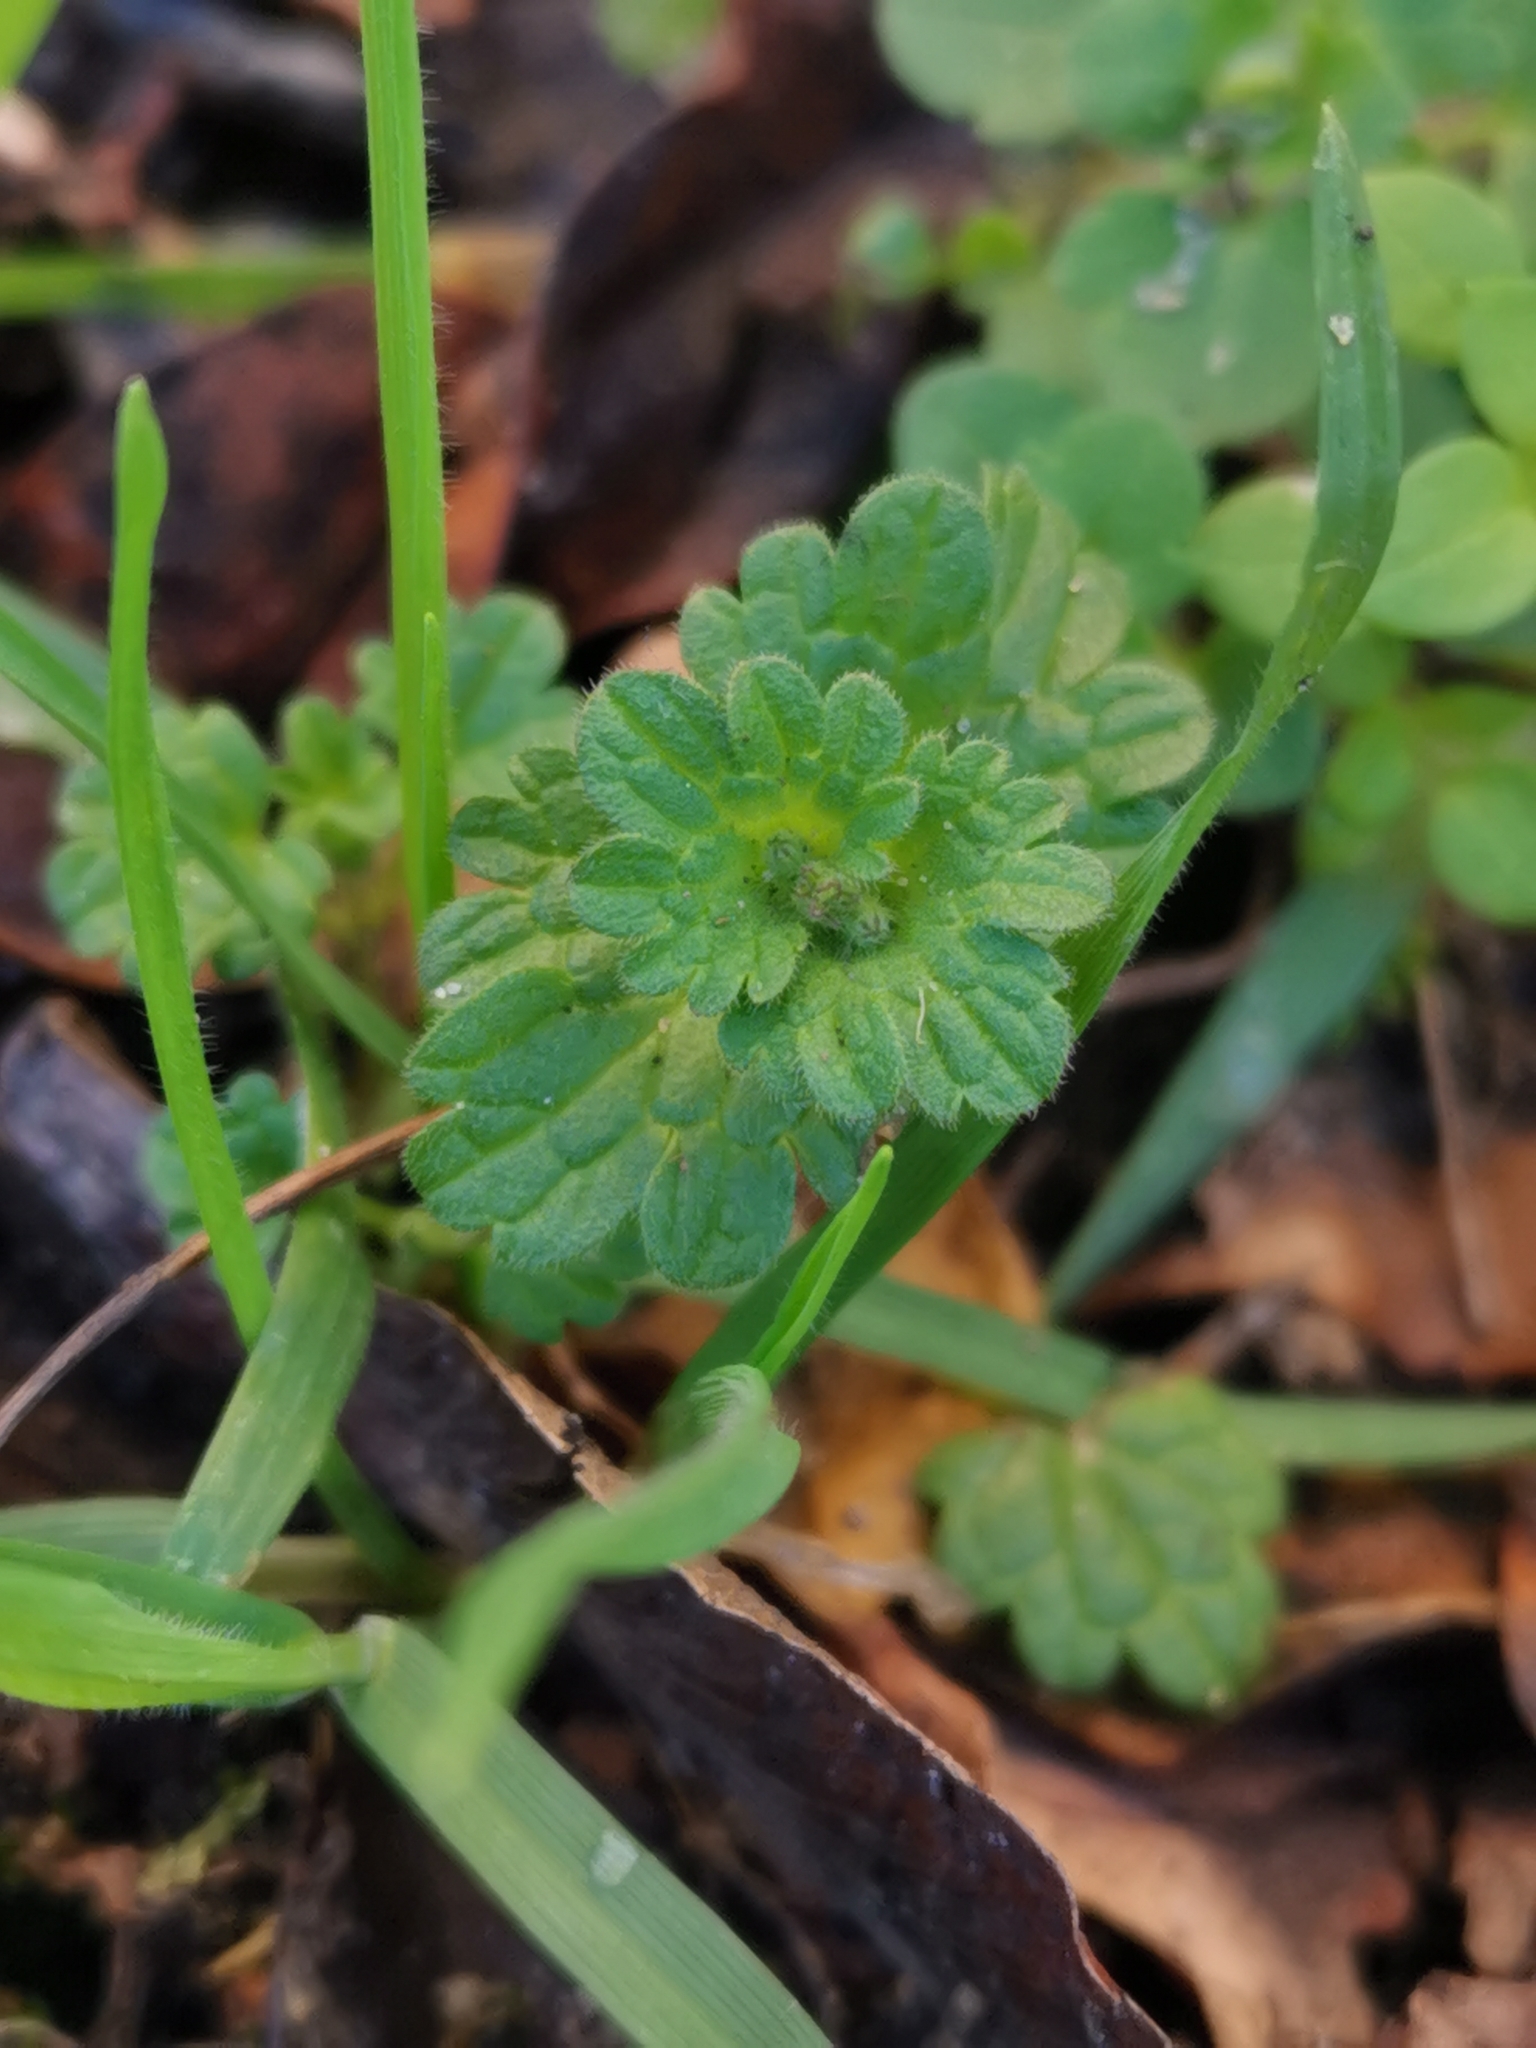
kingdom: Plantae
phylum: Tracheophyta
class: Magnoliopsida
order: Lamiales
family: Lamiaceae
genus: Lamium
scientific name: Lamium amplexicaule
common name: Henbit dead-nettle
